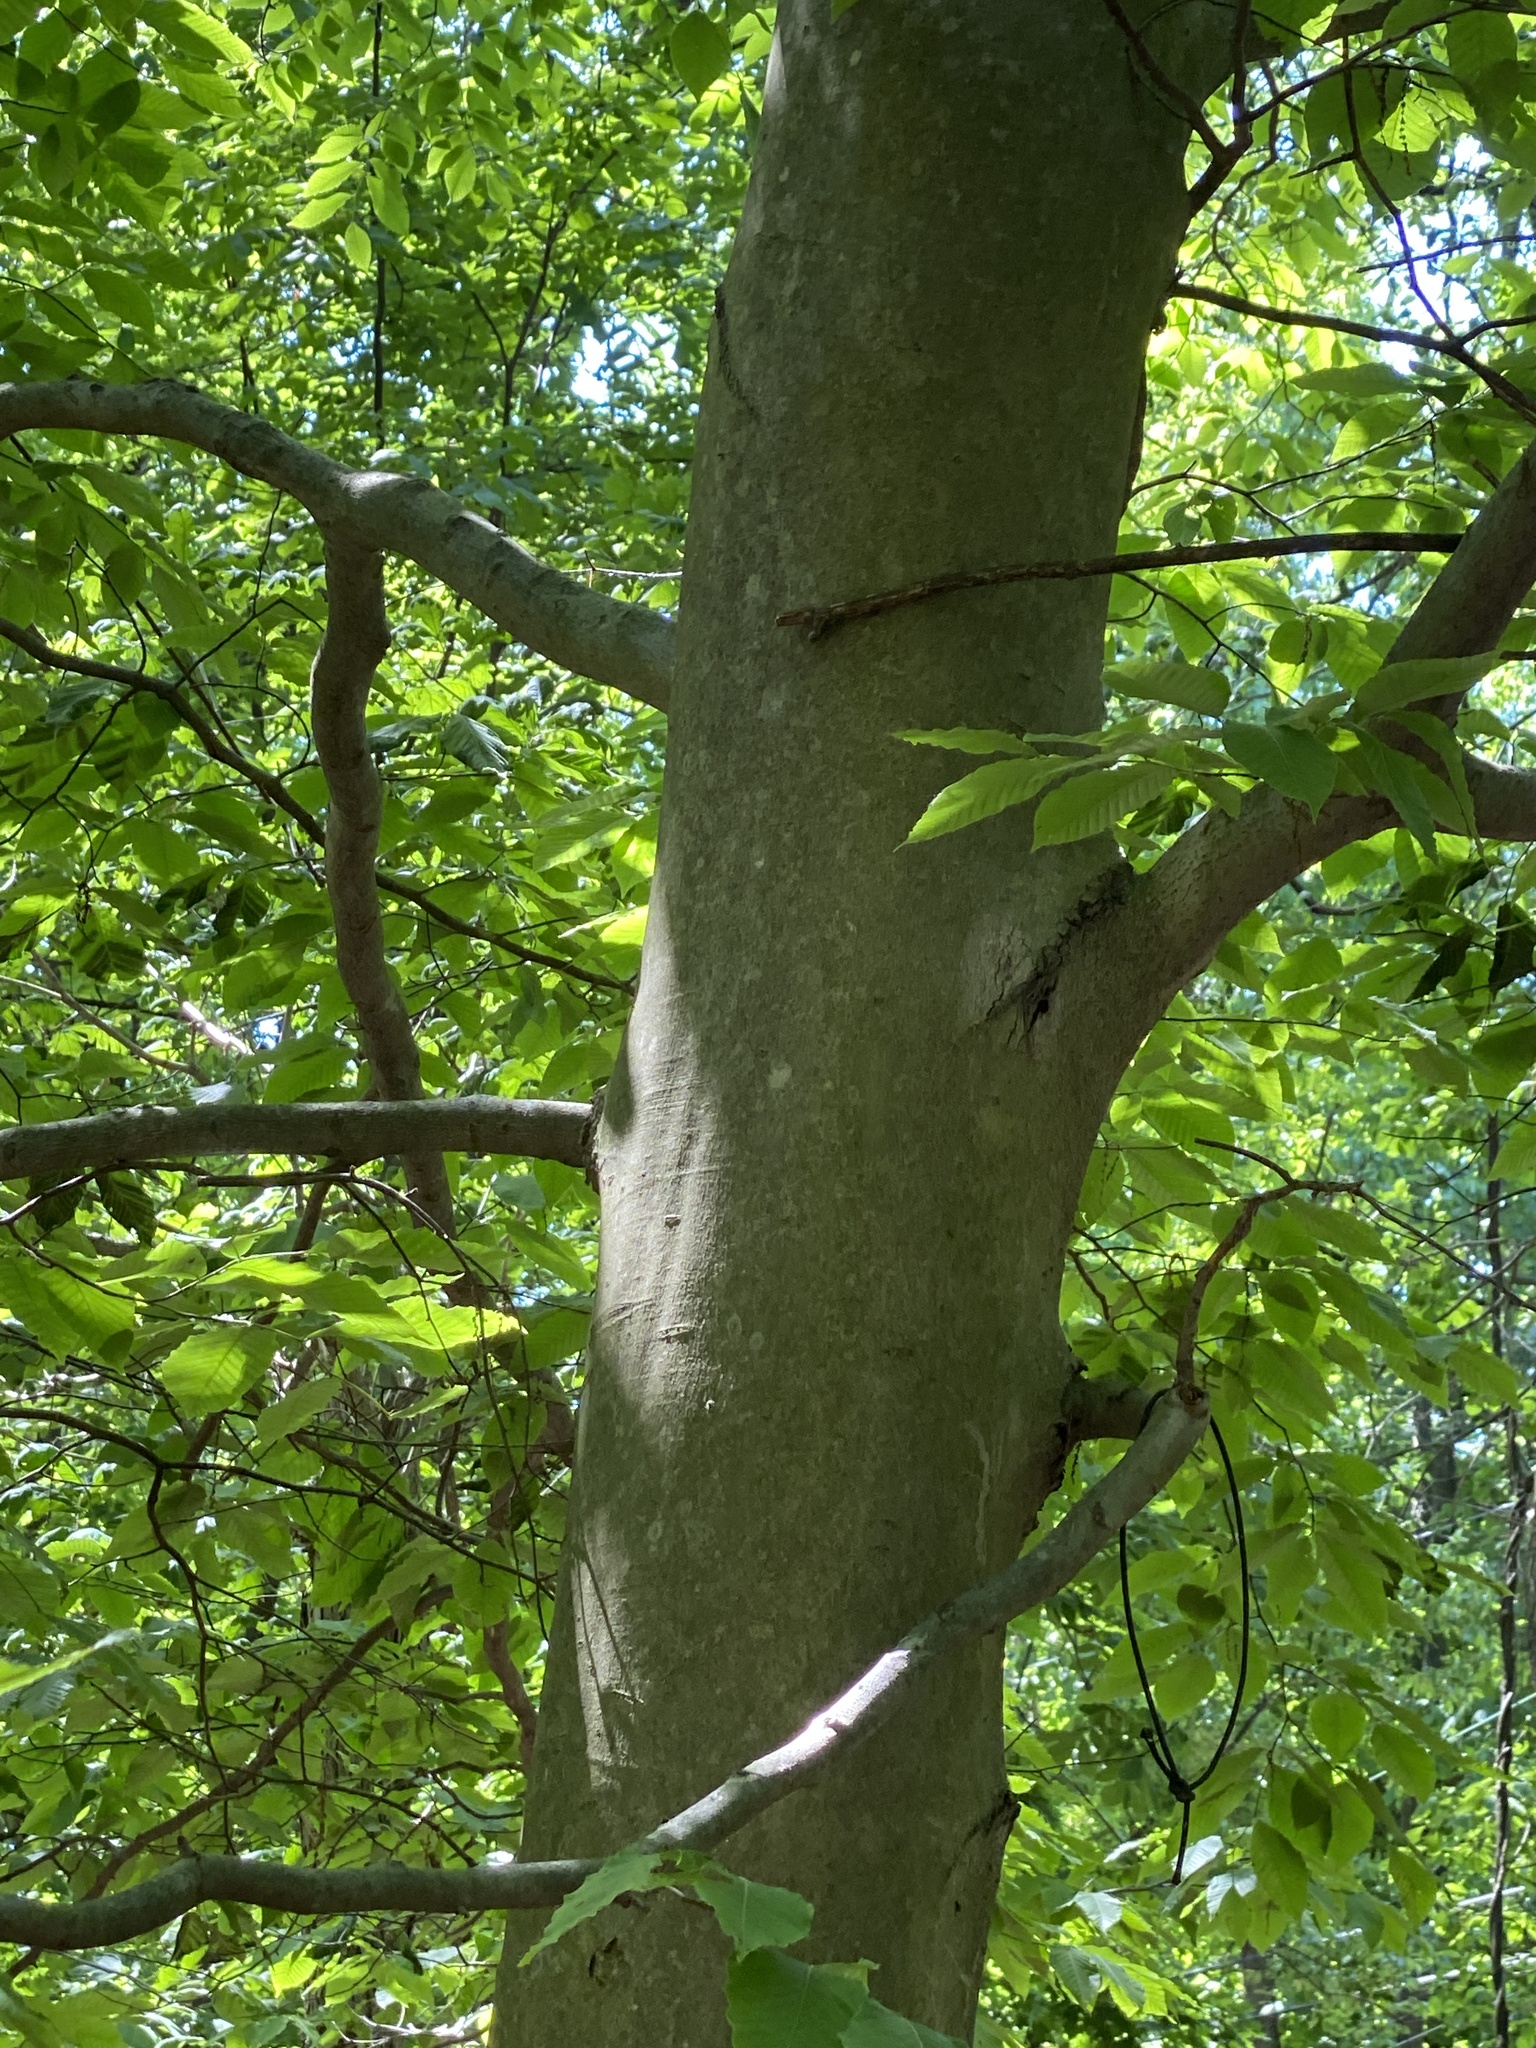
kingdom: Plantae
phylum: Tracheophyta
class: Magnoliopsida
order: Fagales
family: Fagaceae
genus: Fagus
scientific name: Fagus grandifolia
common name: American beech
